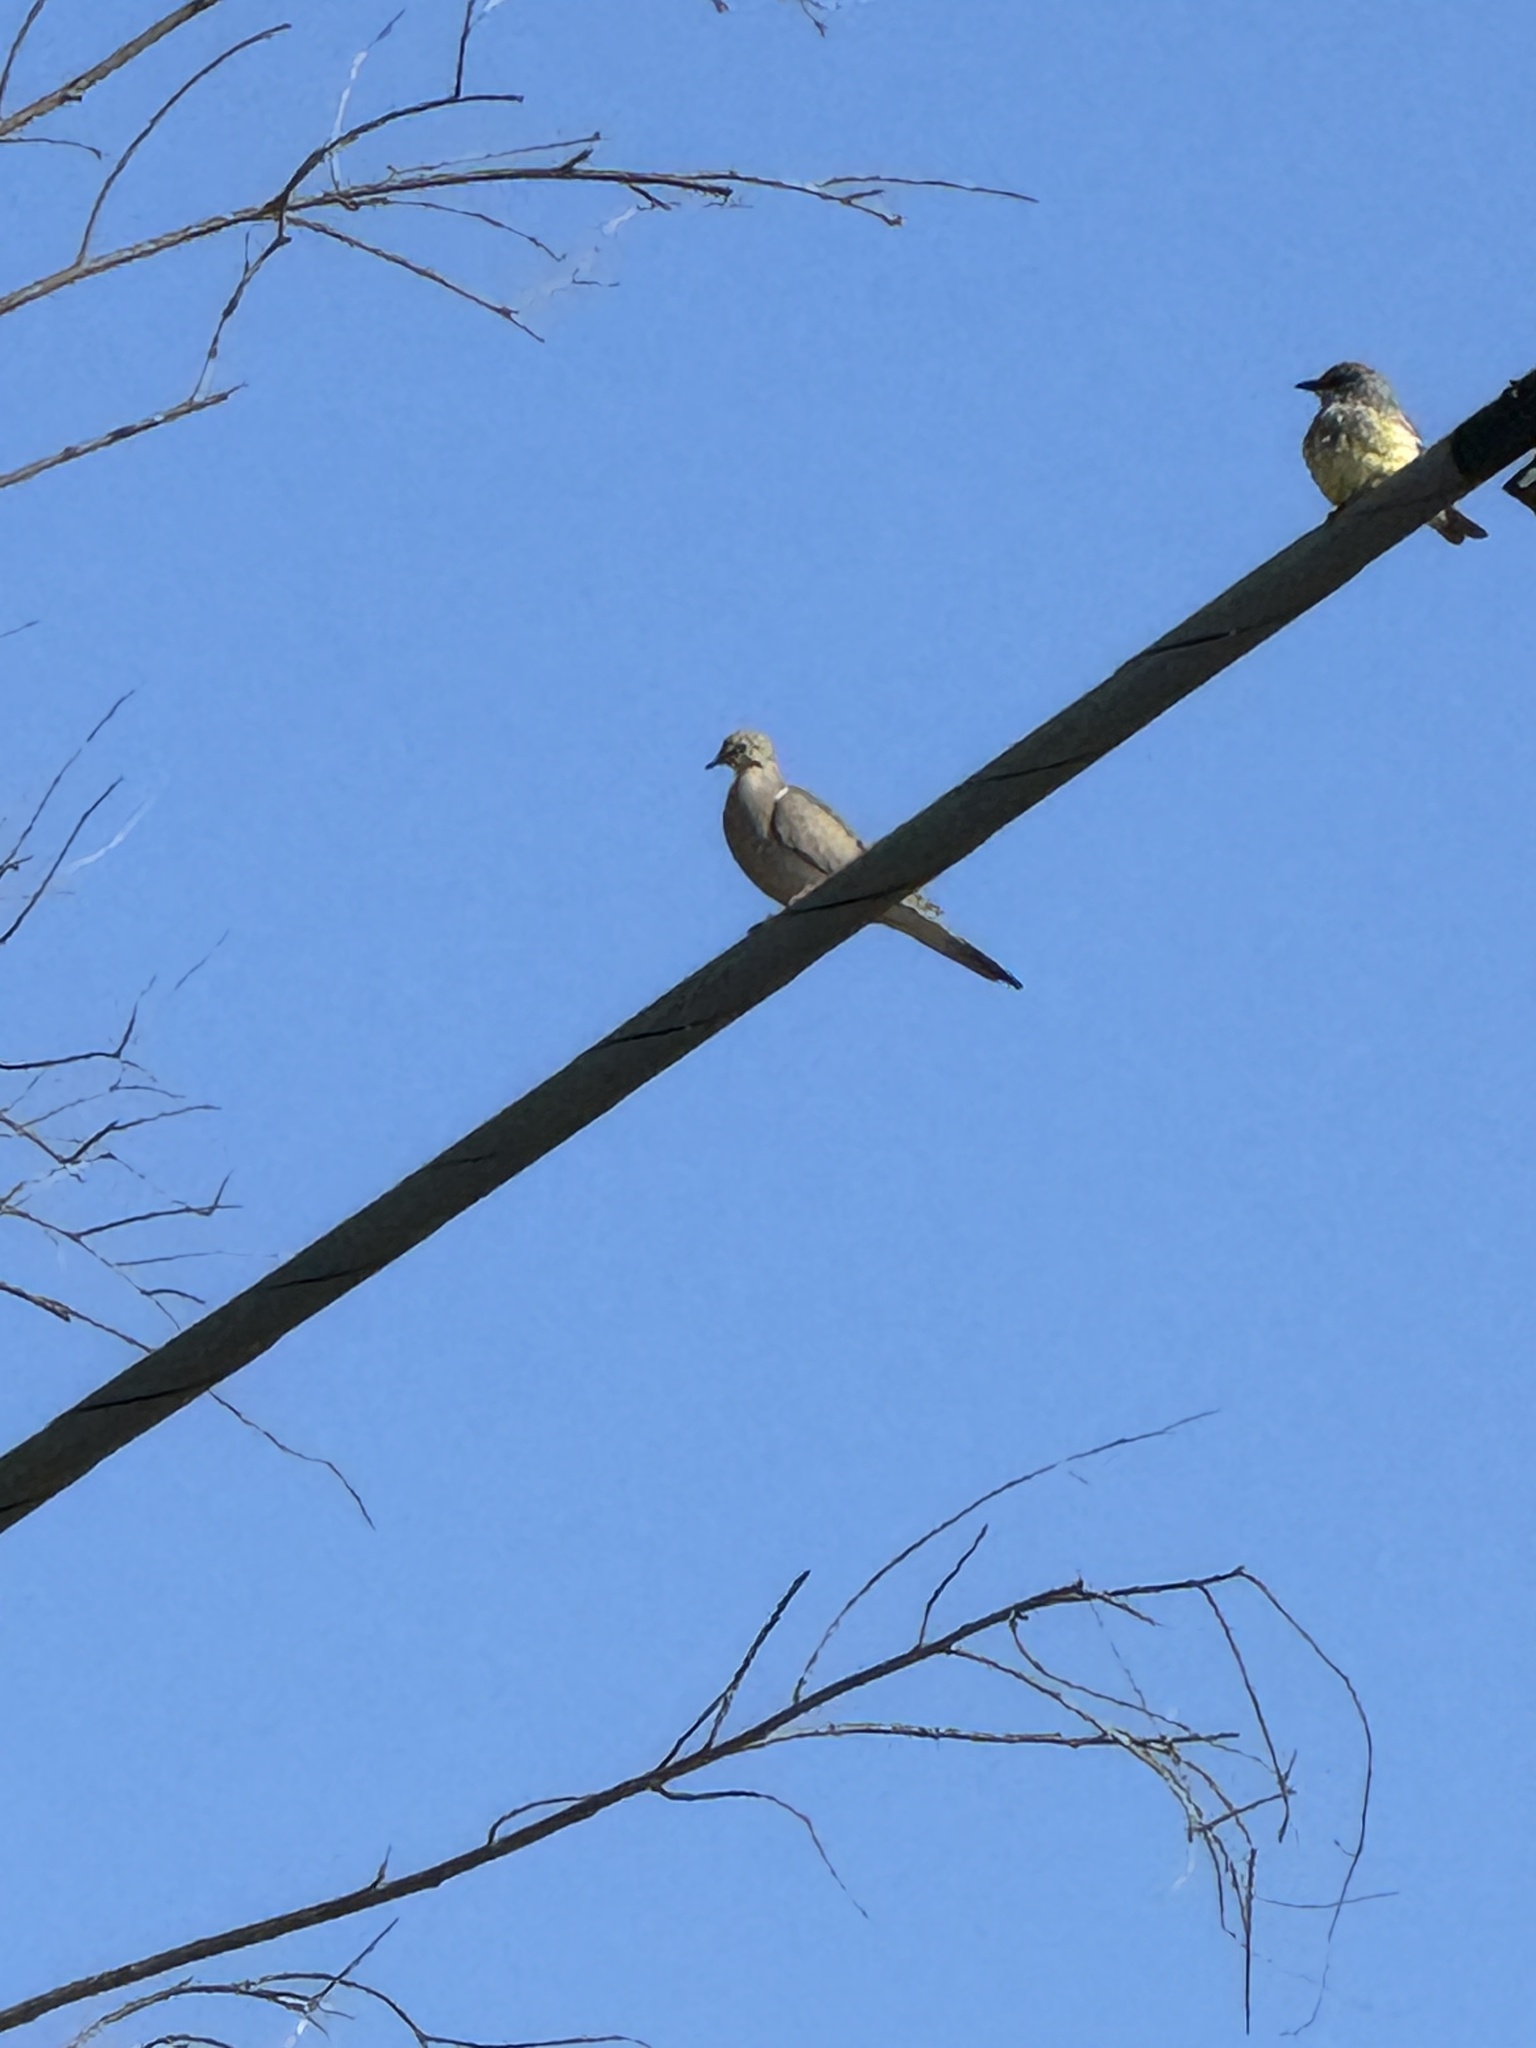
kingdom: Animalia
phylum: Chordata
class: Aves
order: Columbiformes
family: Columbidae
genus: Zenaida
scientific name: Zenaida macroura
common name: Mourning dove
